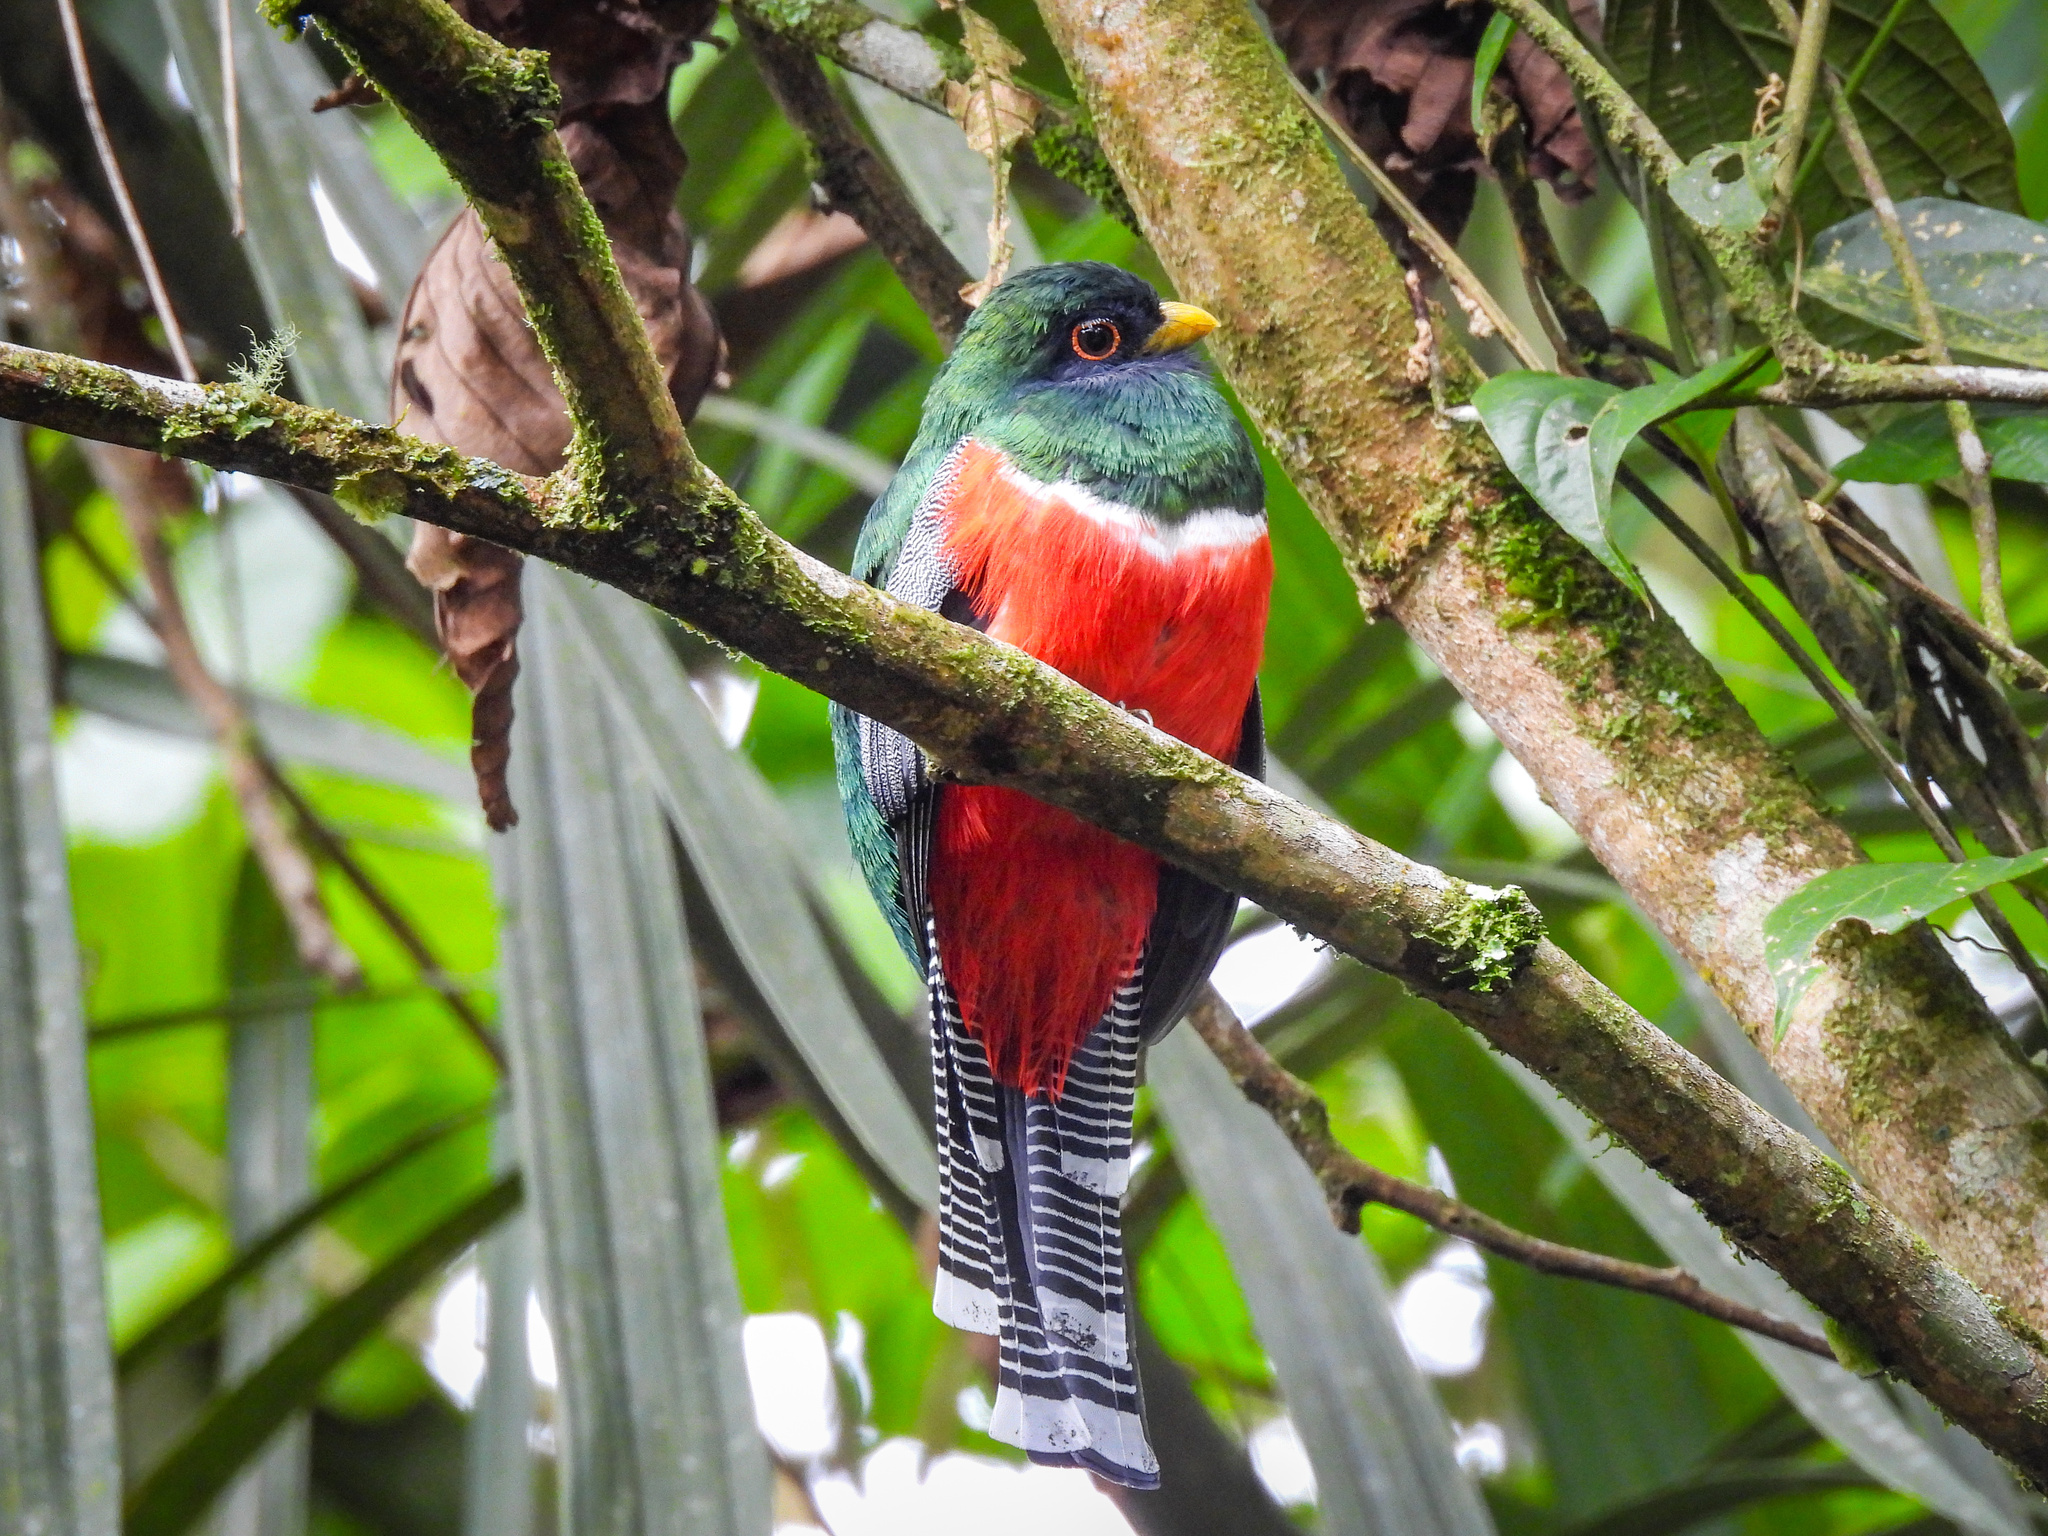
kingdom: Animalia
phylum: Chordata
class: Aves
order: Trogoniformes
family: Trogonidae
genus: Trogon
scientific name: Trogon collaris
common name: Collared trogon
